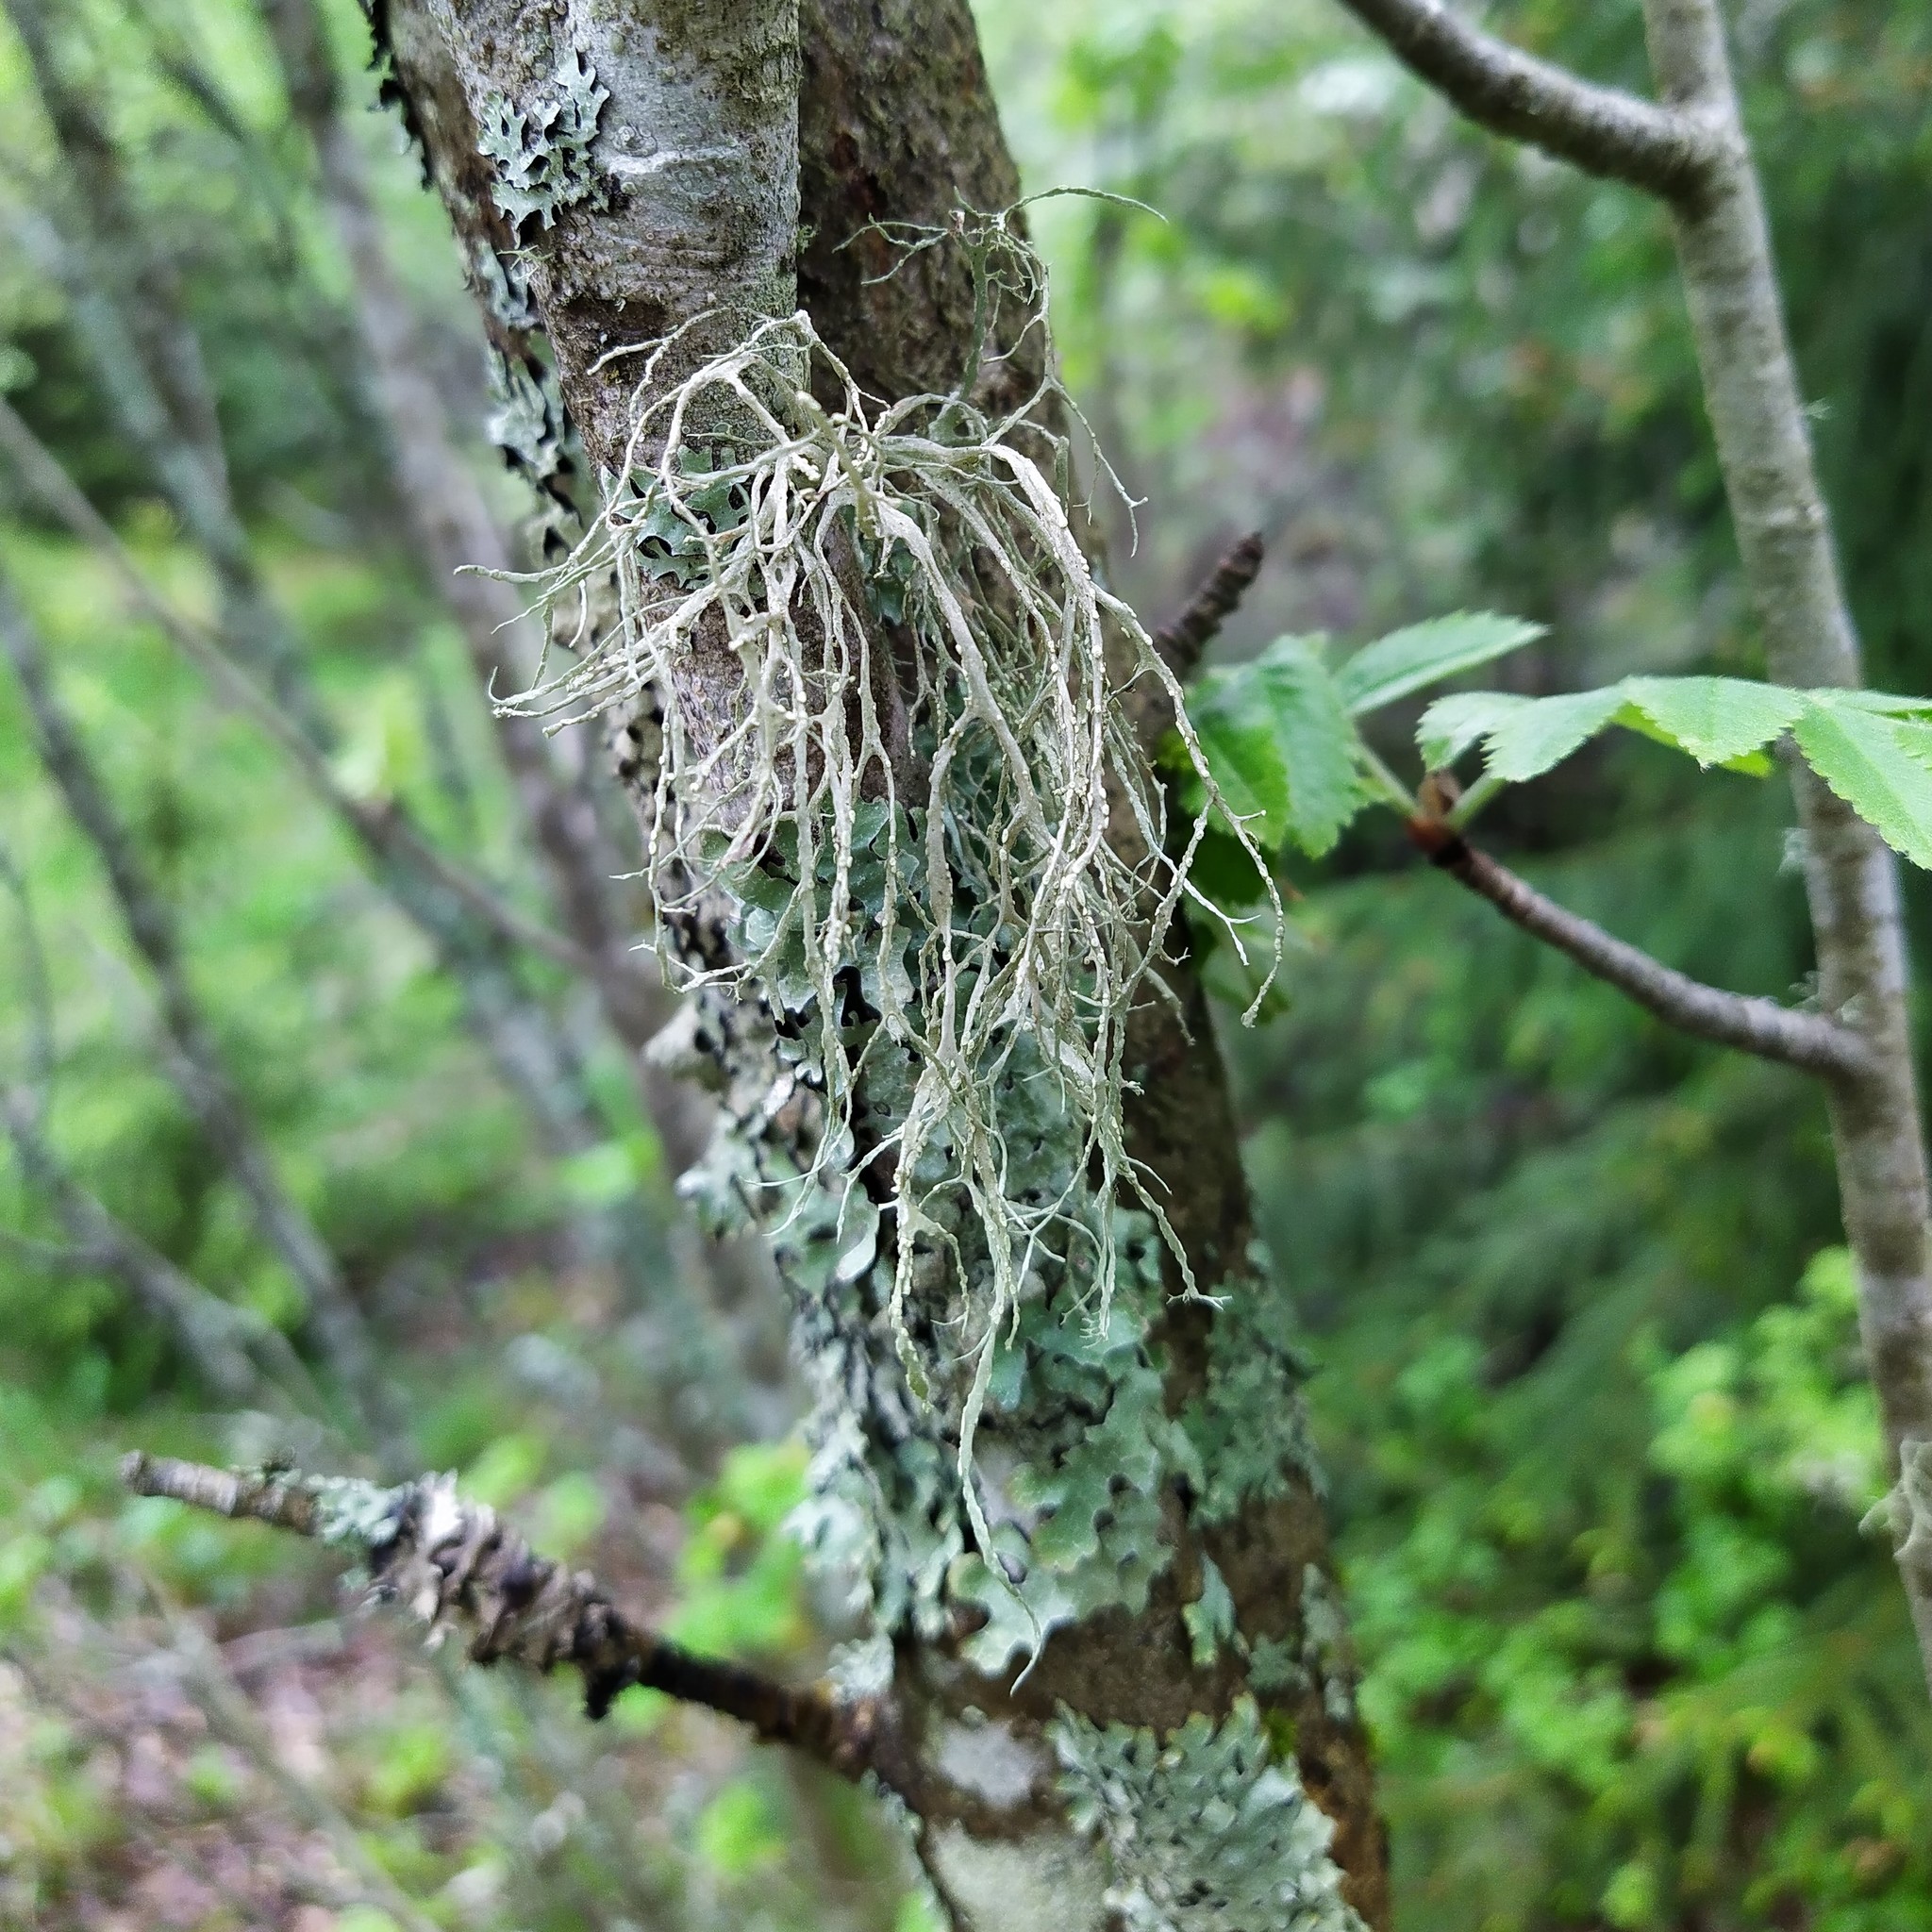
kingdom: Fungi
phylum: Ascomycota
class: Lecanoromycetes
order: Lecanorales
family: Ramalinaceae
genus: Ramalina
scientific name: Ramalina farinacea
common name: Farinose cartilage lichen
